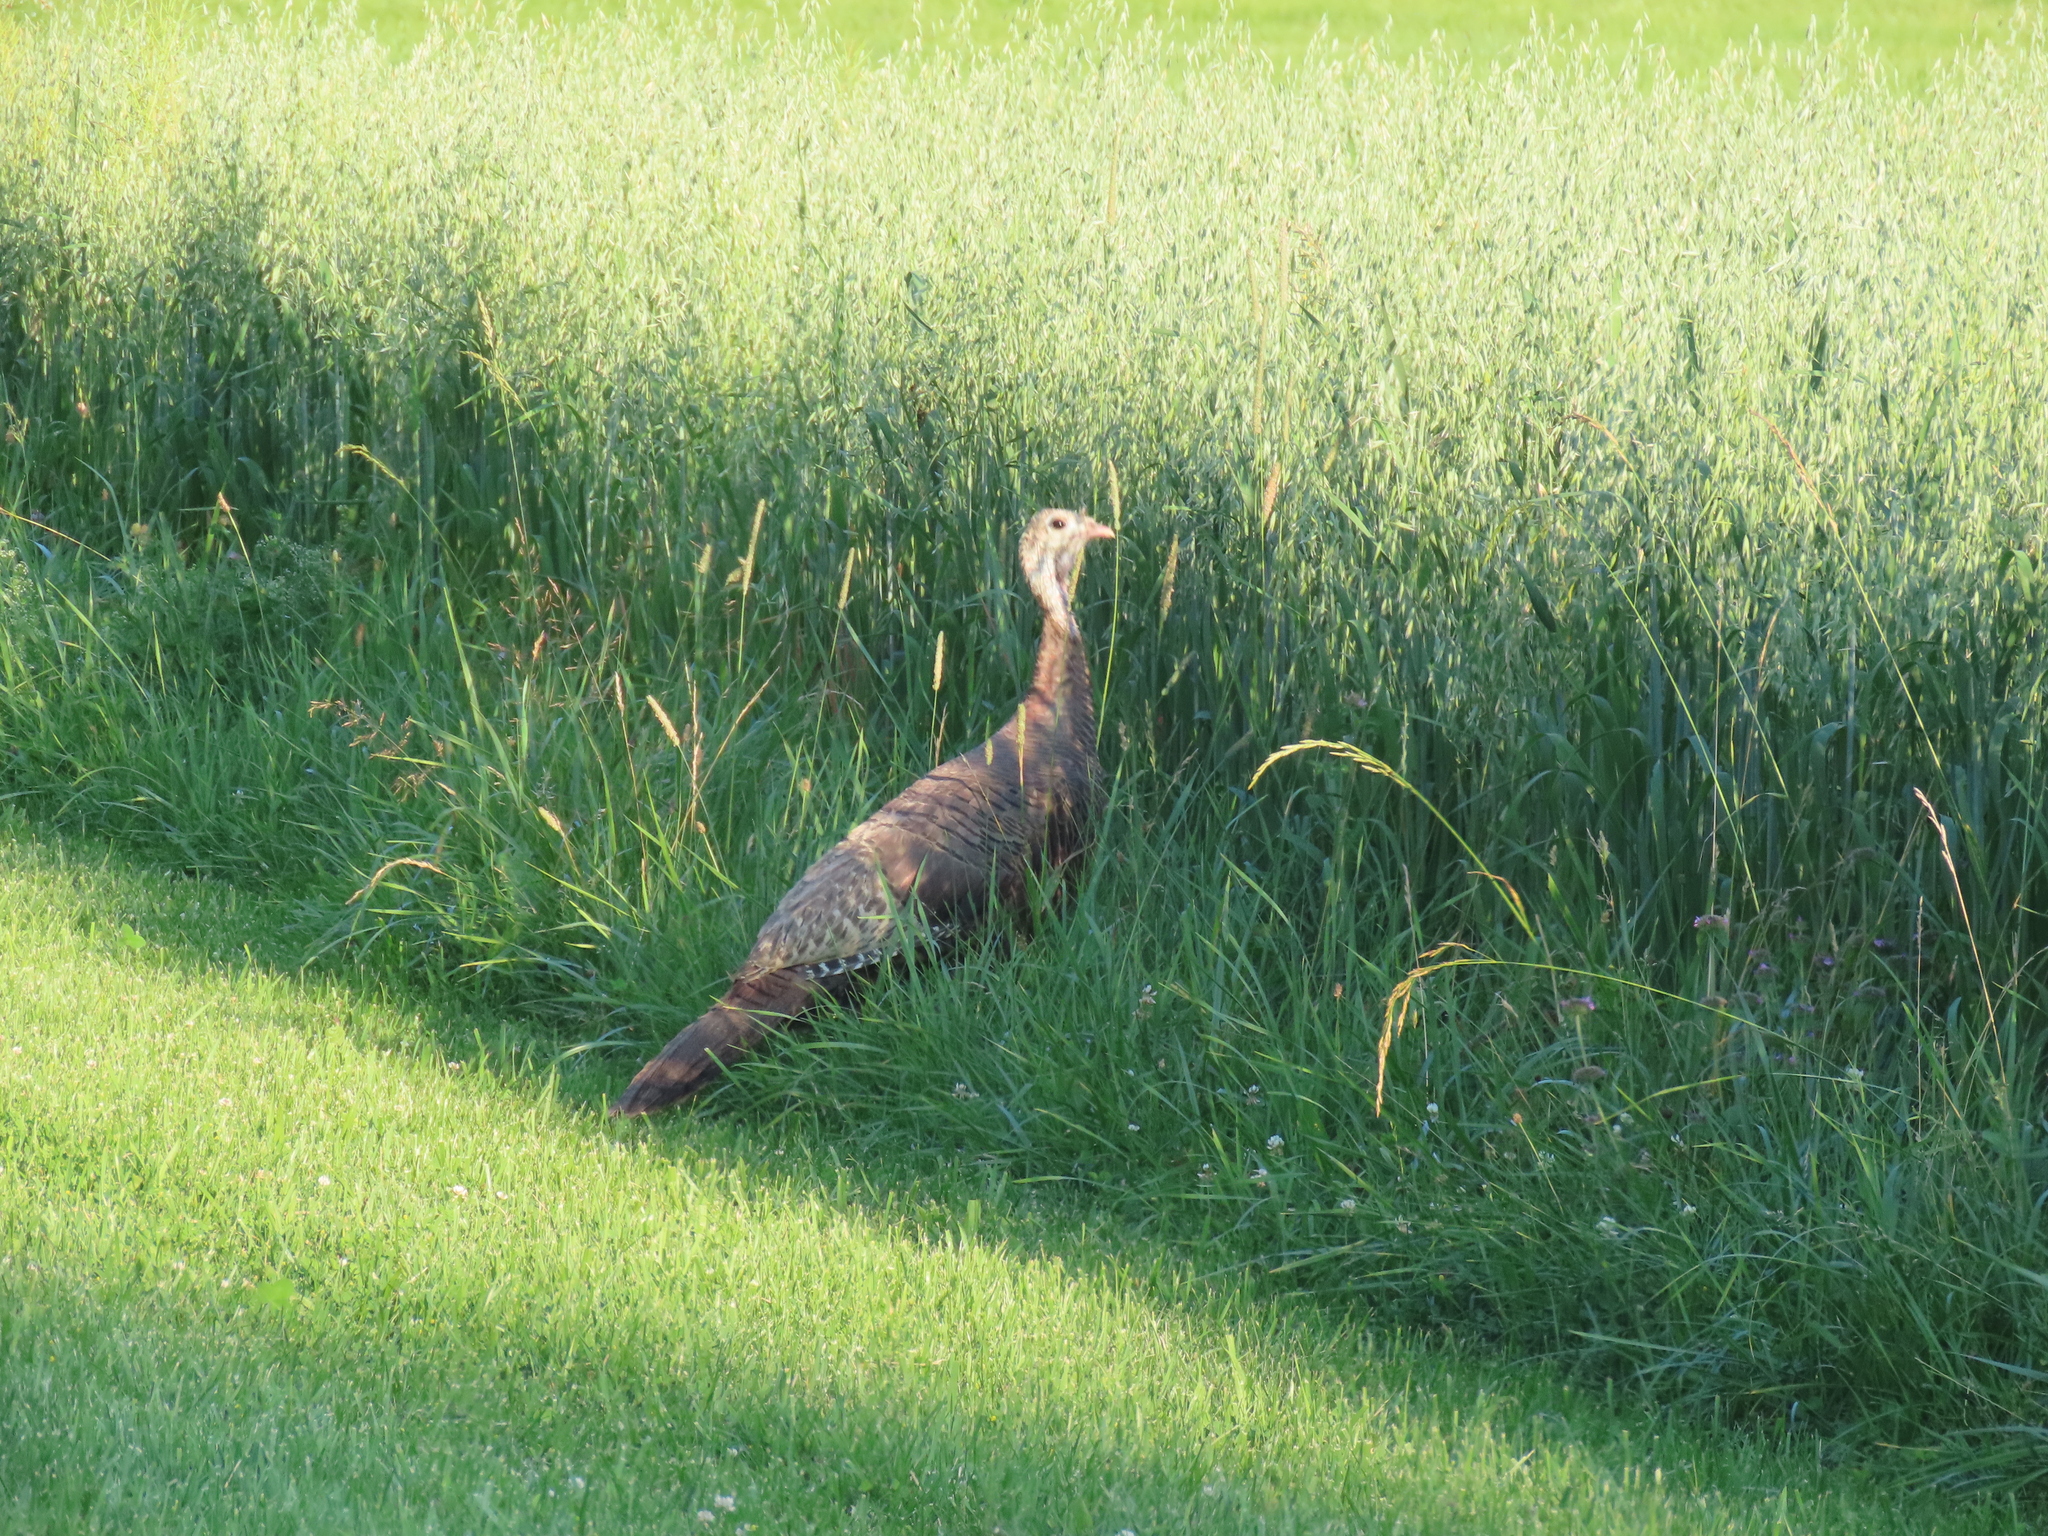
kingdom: Animalia
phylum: Chordata
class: Aves
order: Galliformes
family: Phasianidae
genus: Meleagris
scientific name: Meleagris gallopavo
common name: Wild turkey
